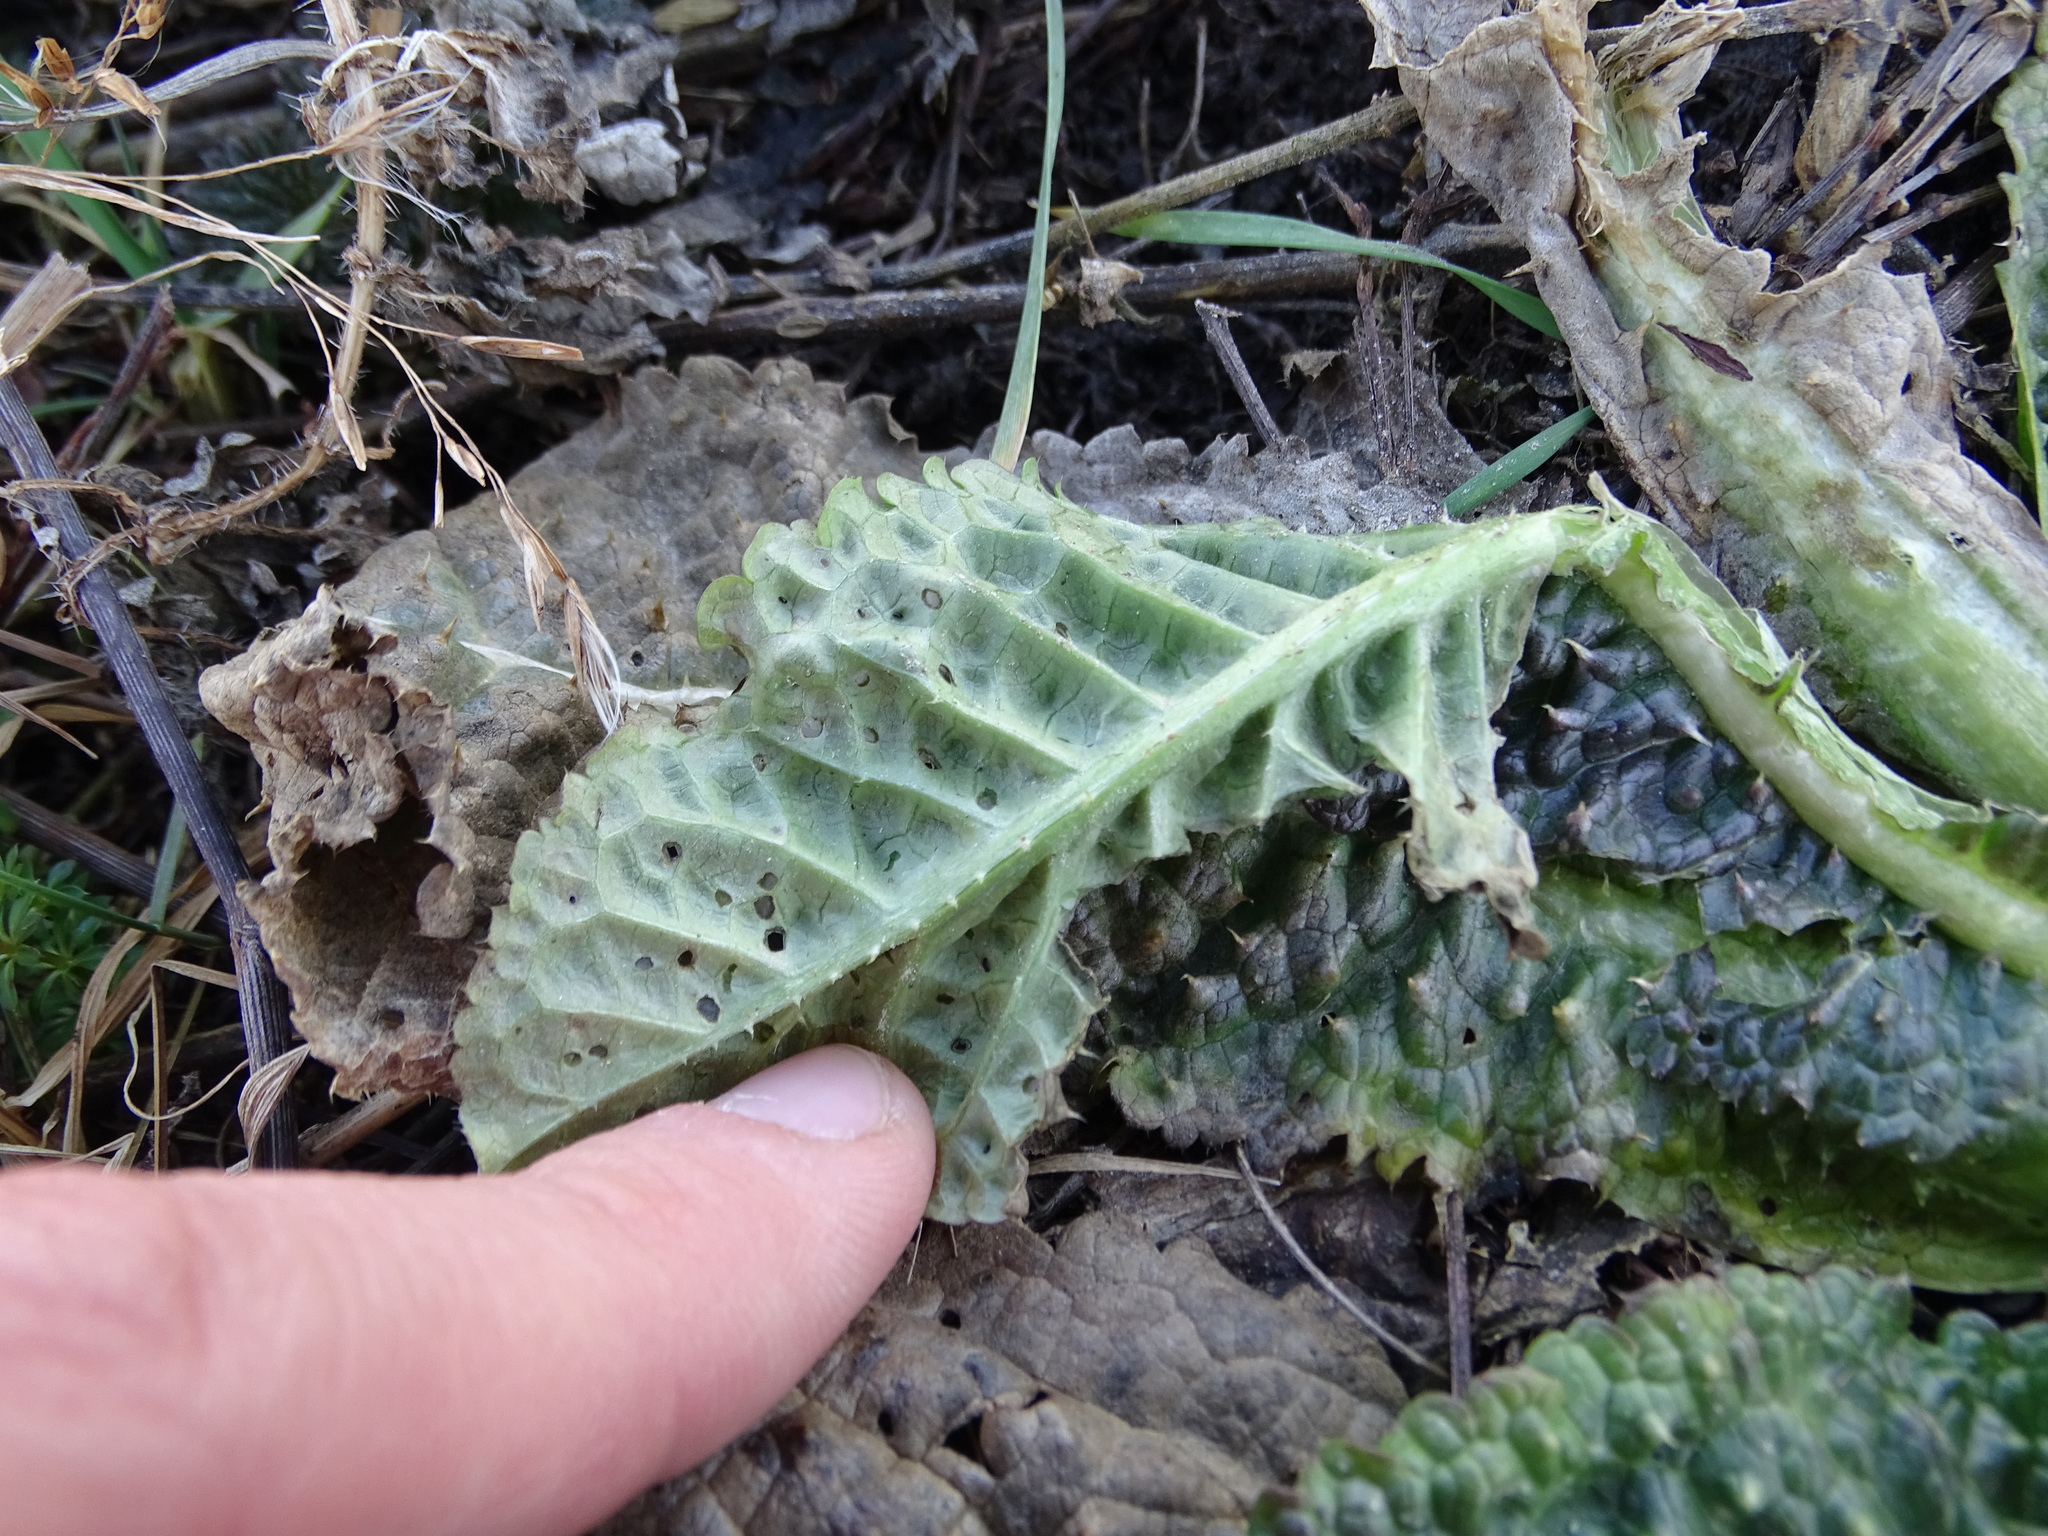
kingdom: Plantae
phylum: Tracheophyta
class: Magnoliopsida
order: Dipsacales
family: Caprifoliaceae
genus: Dipsacus
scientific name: Dipsacus fullonum
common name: Teasel
